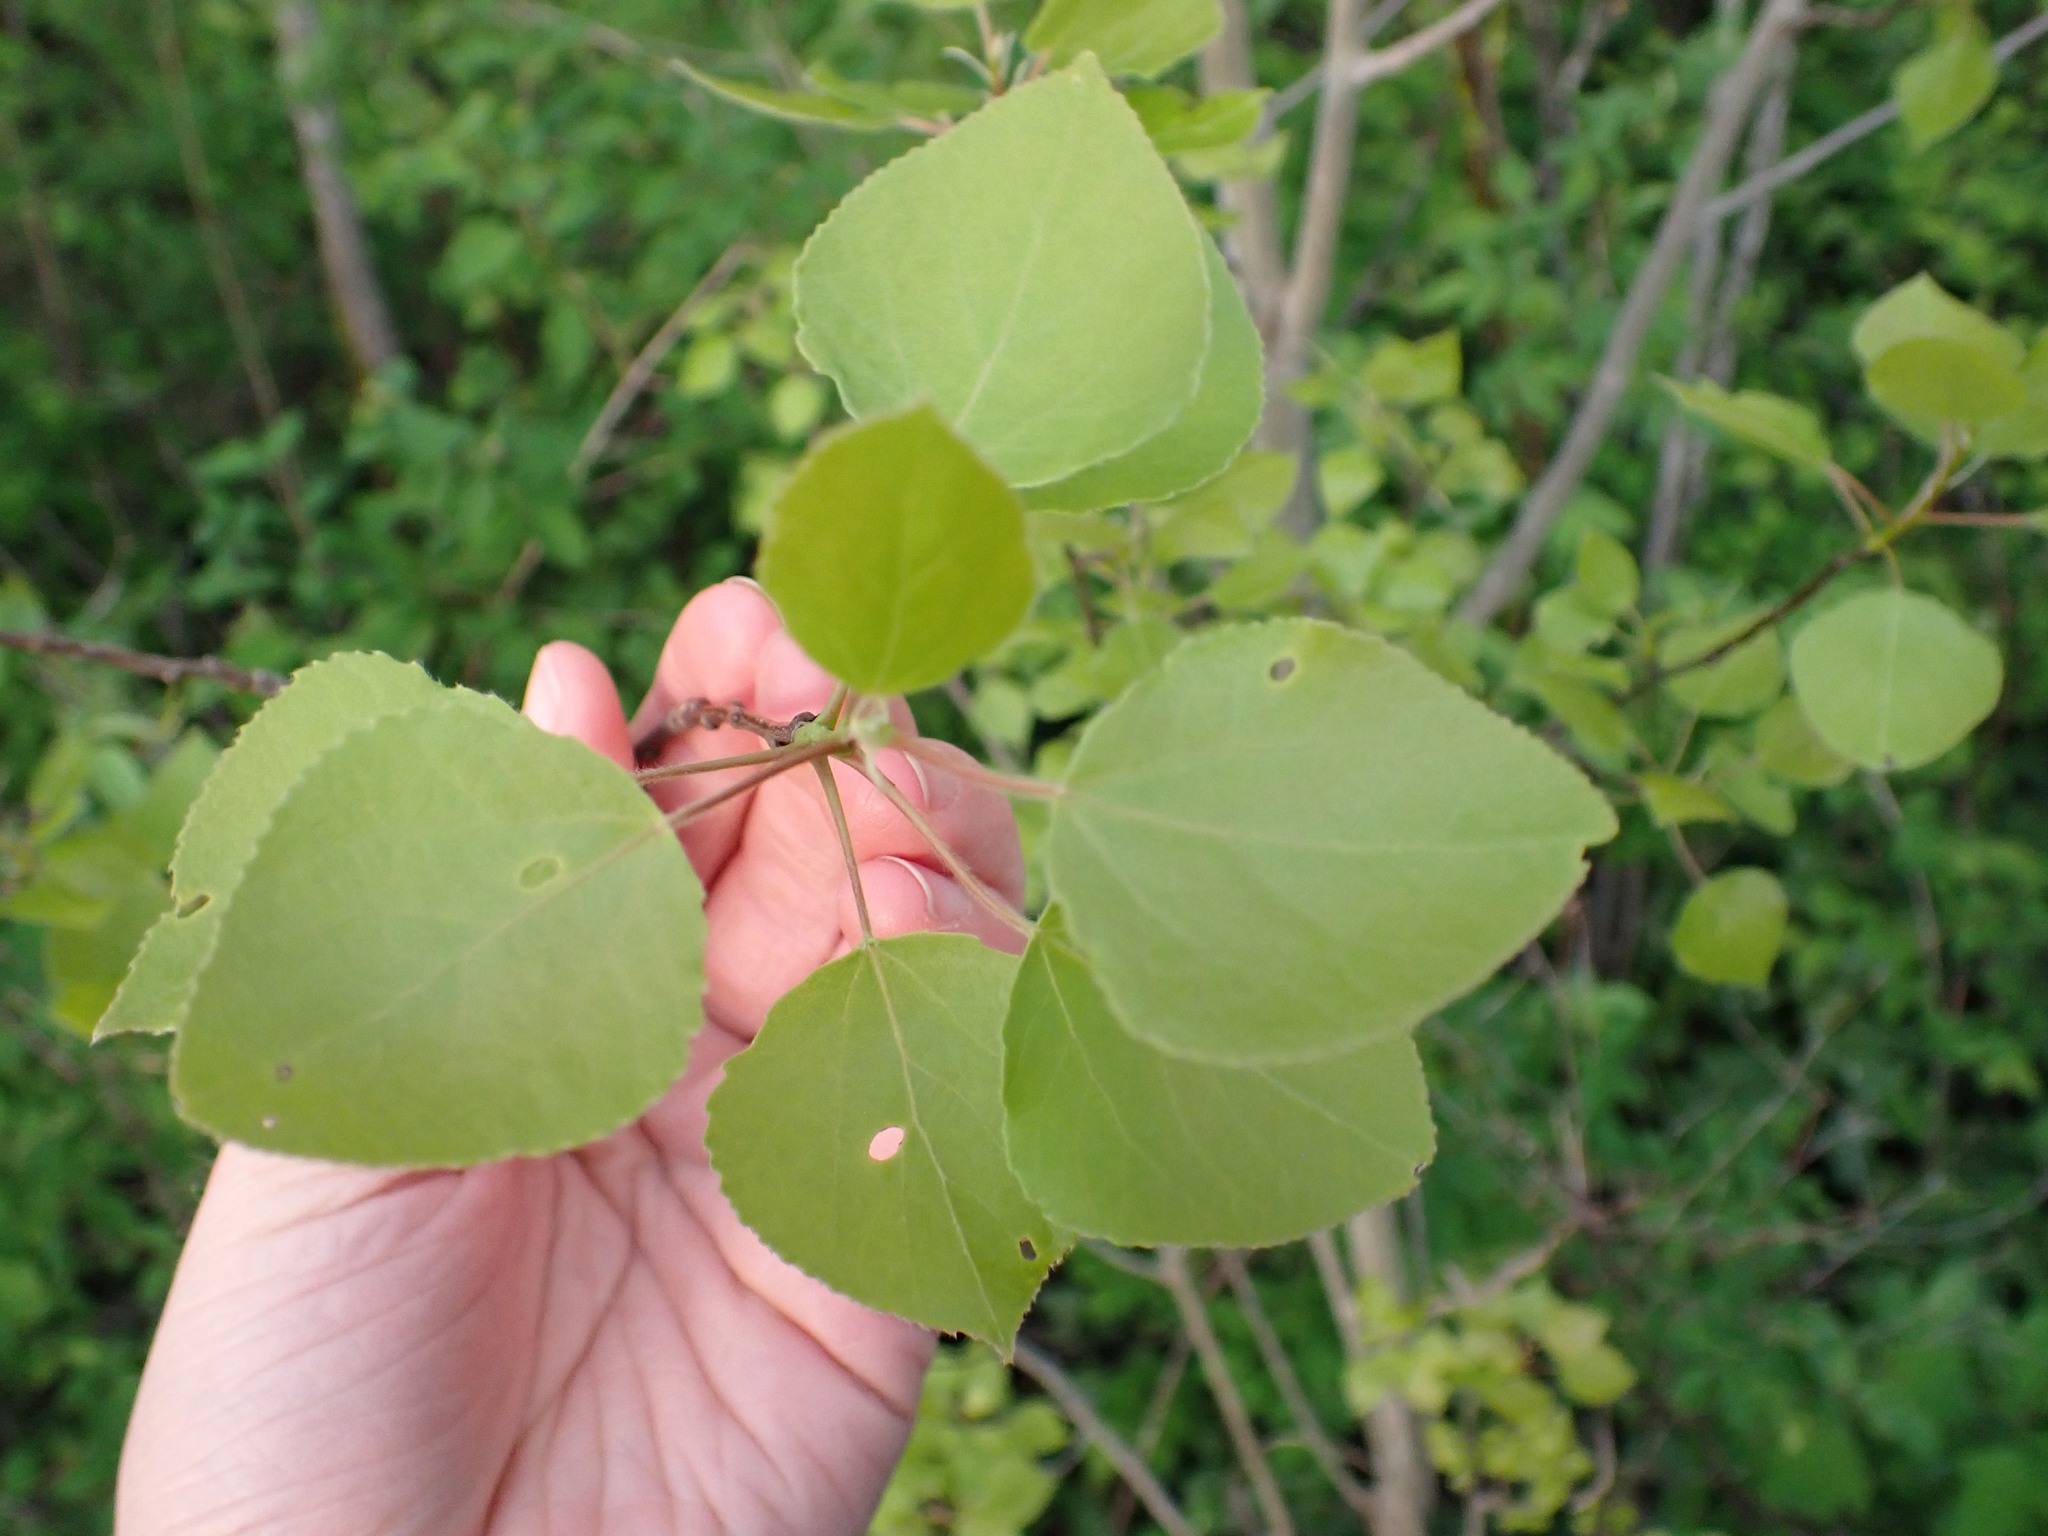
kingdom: Plantae
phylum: Tracheophyta
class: Magnoliopsida
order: Malpighiales
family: Salicaceae
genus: Populus
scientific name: Populus tremuloides
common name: Quaking aspen
